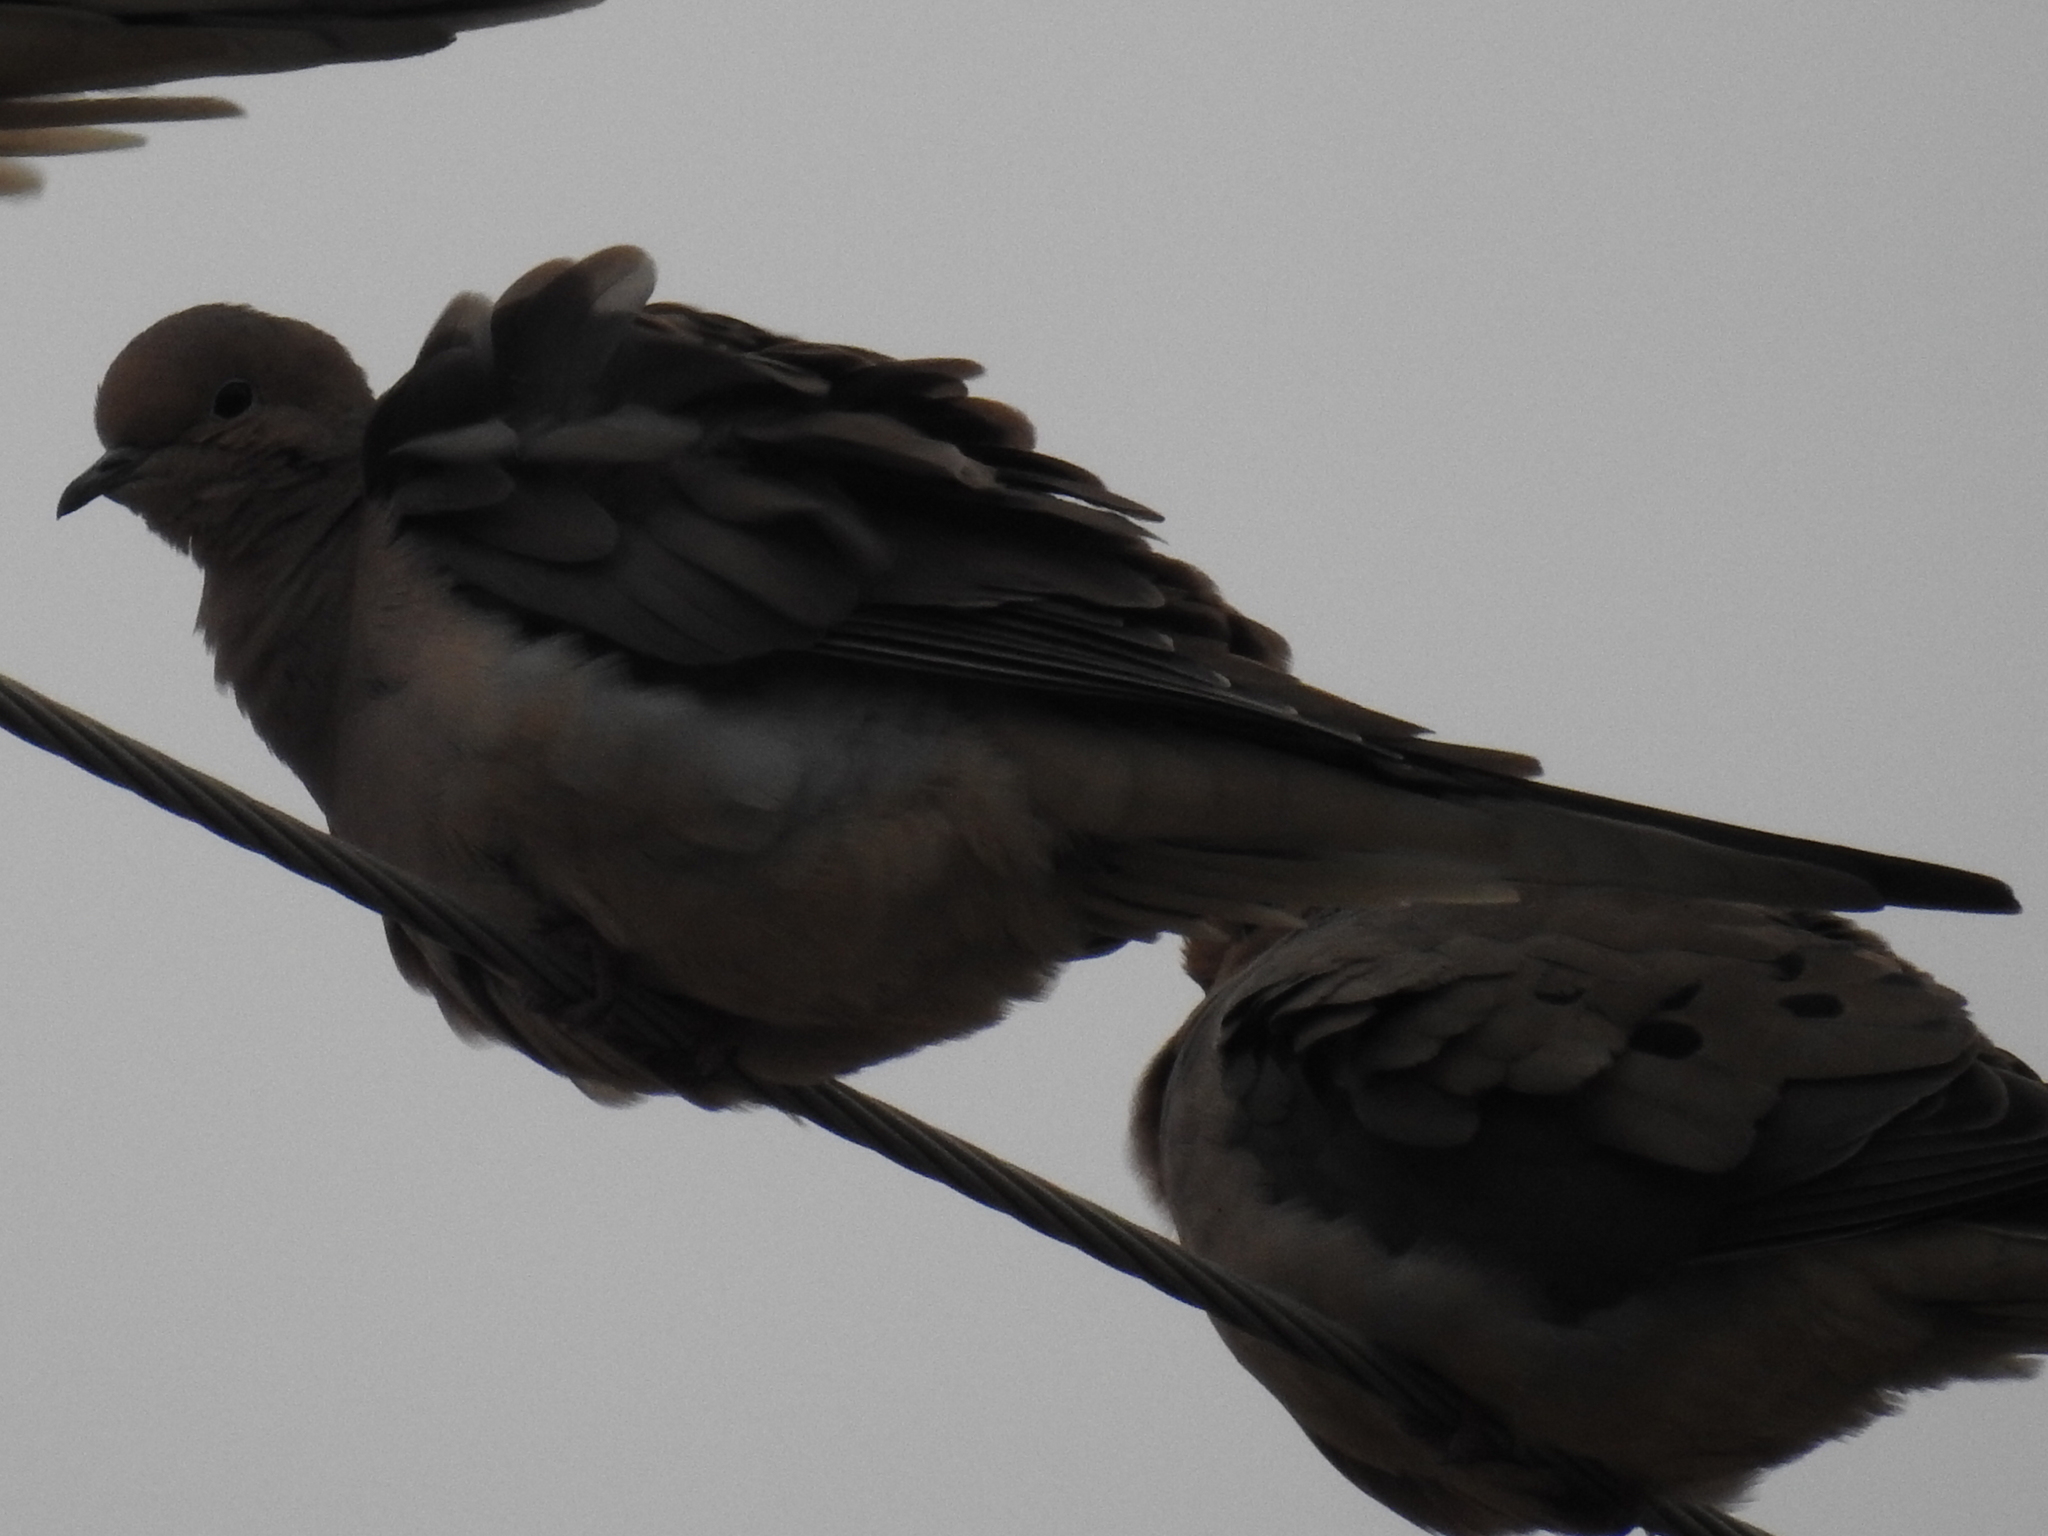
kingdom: Animalia
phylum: Chordata
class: Aves
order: Columbiformes
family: Columbidae
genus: Zenaida
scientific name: Zenaida macroura
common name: Mourning dove
